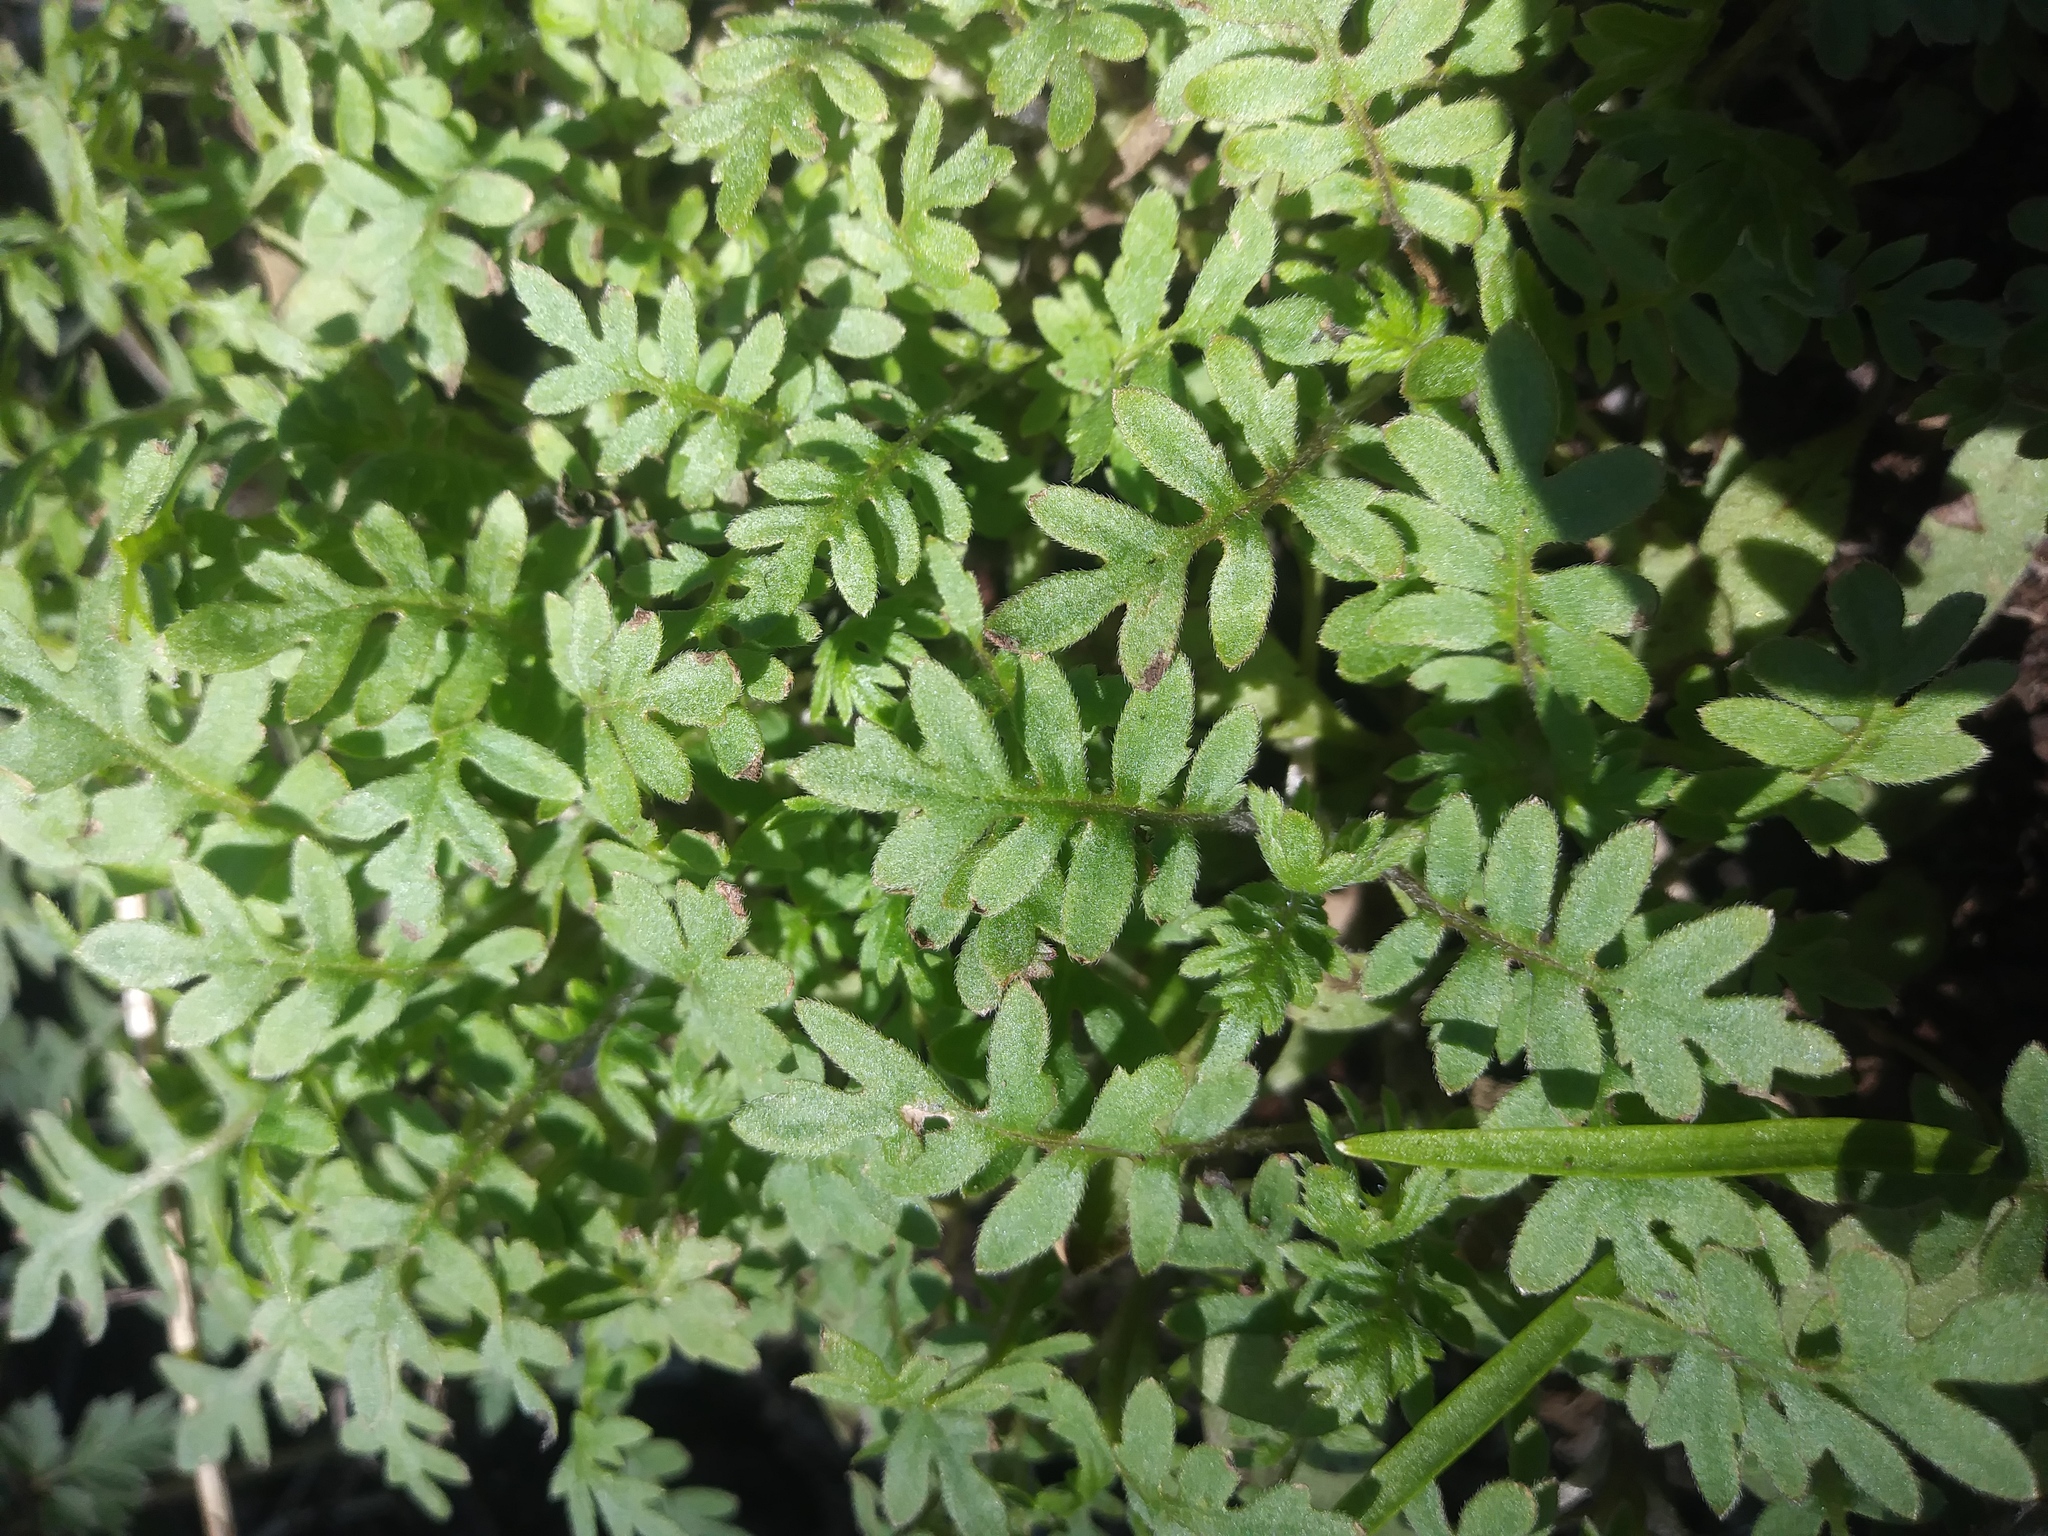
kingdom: Plantae
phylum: Tracheophyta
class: Magnoliopsida
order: Boraginales
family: Hydrophyllaceae
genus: Ellisia
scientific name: Ellisia nyctelea
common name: Aunt lucy
